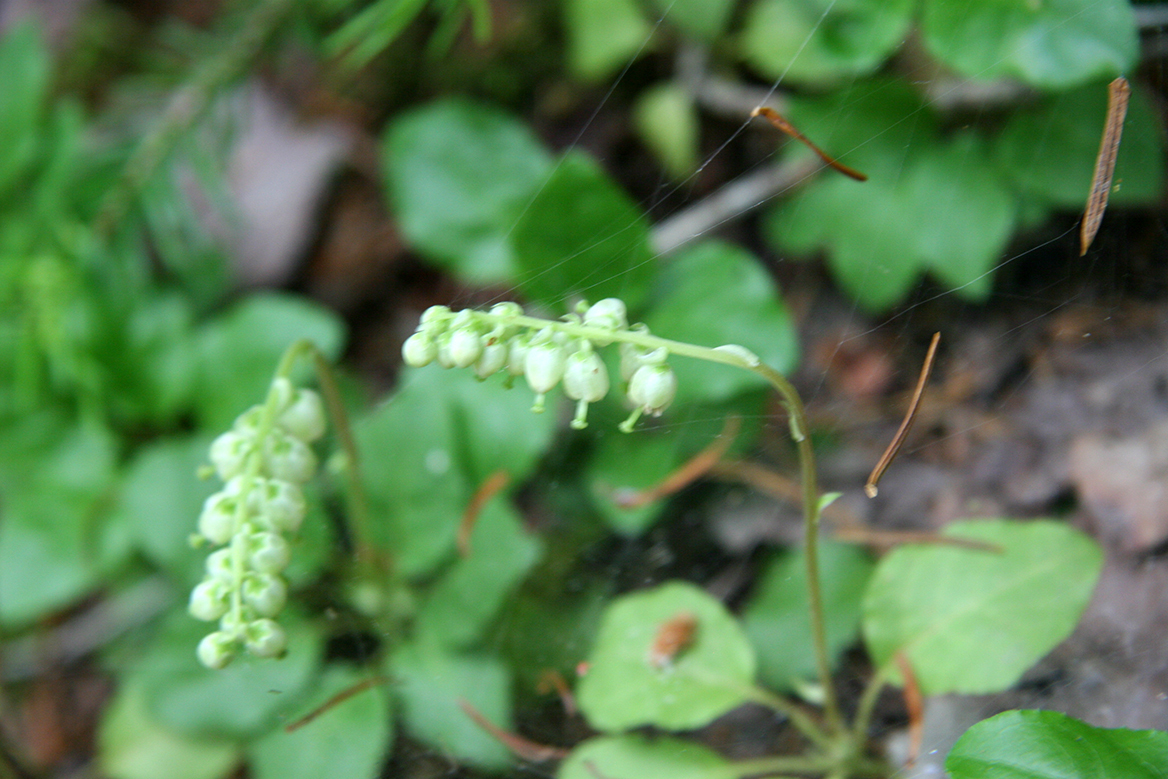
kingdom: Plantae
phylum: Tracheophyta
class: Magnoliopsida
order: Ericales
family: Ericaceae
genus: Orthilia
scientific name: Orthilia secunda
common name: One-sided orthilia
